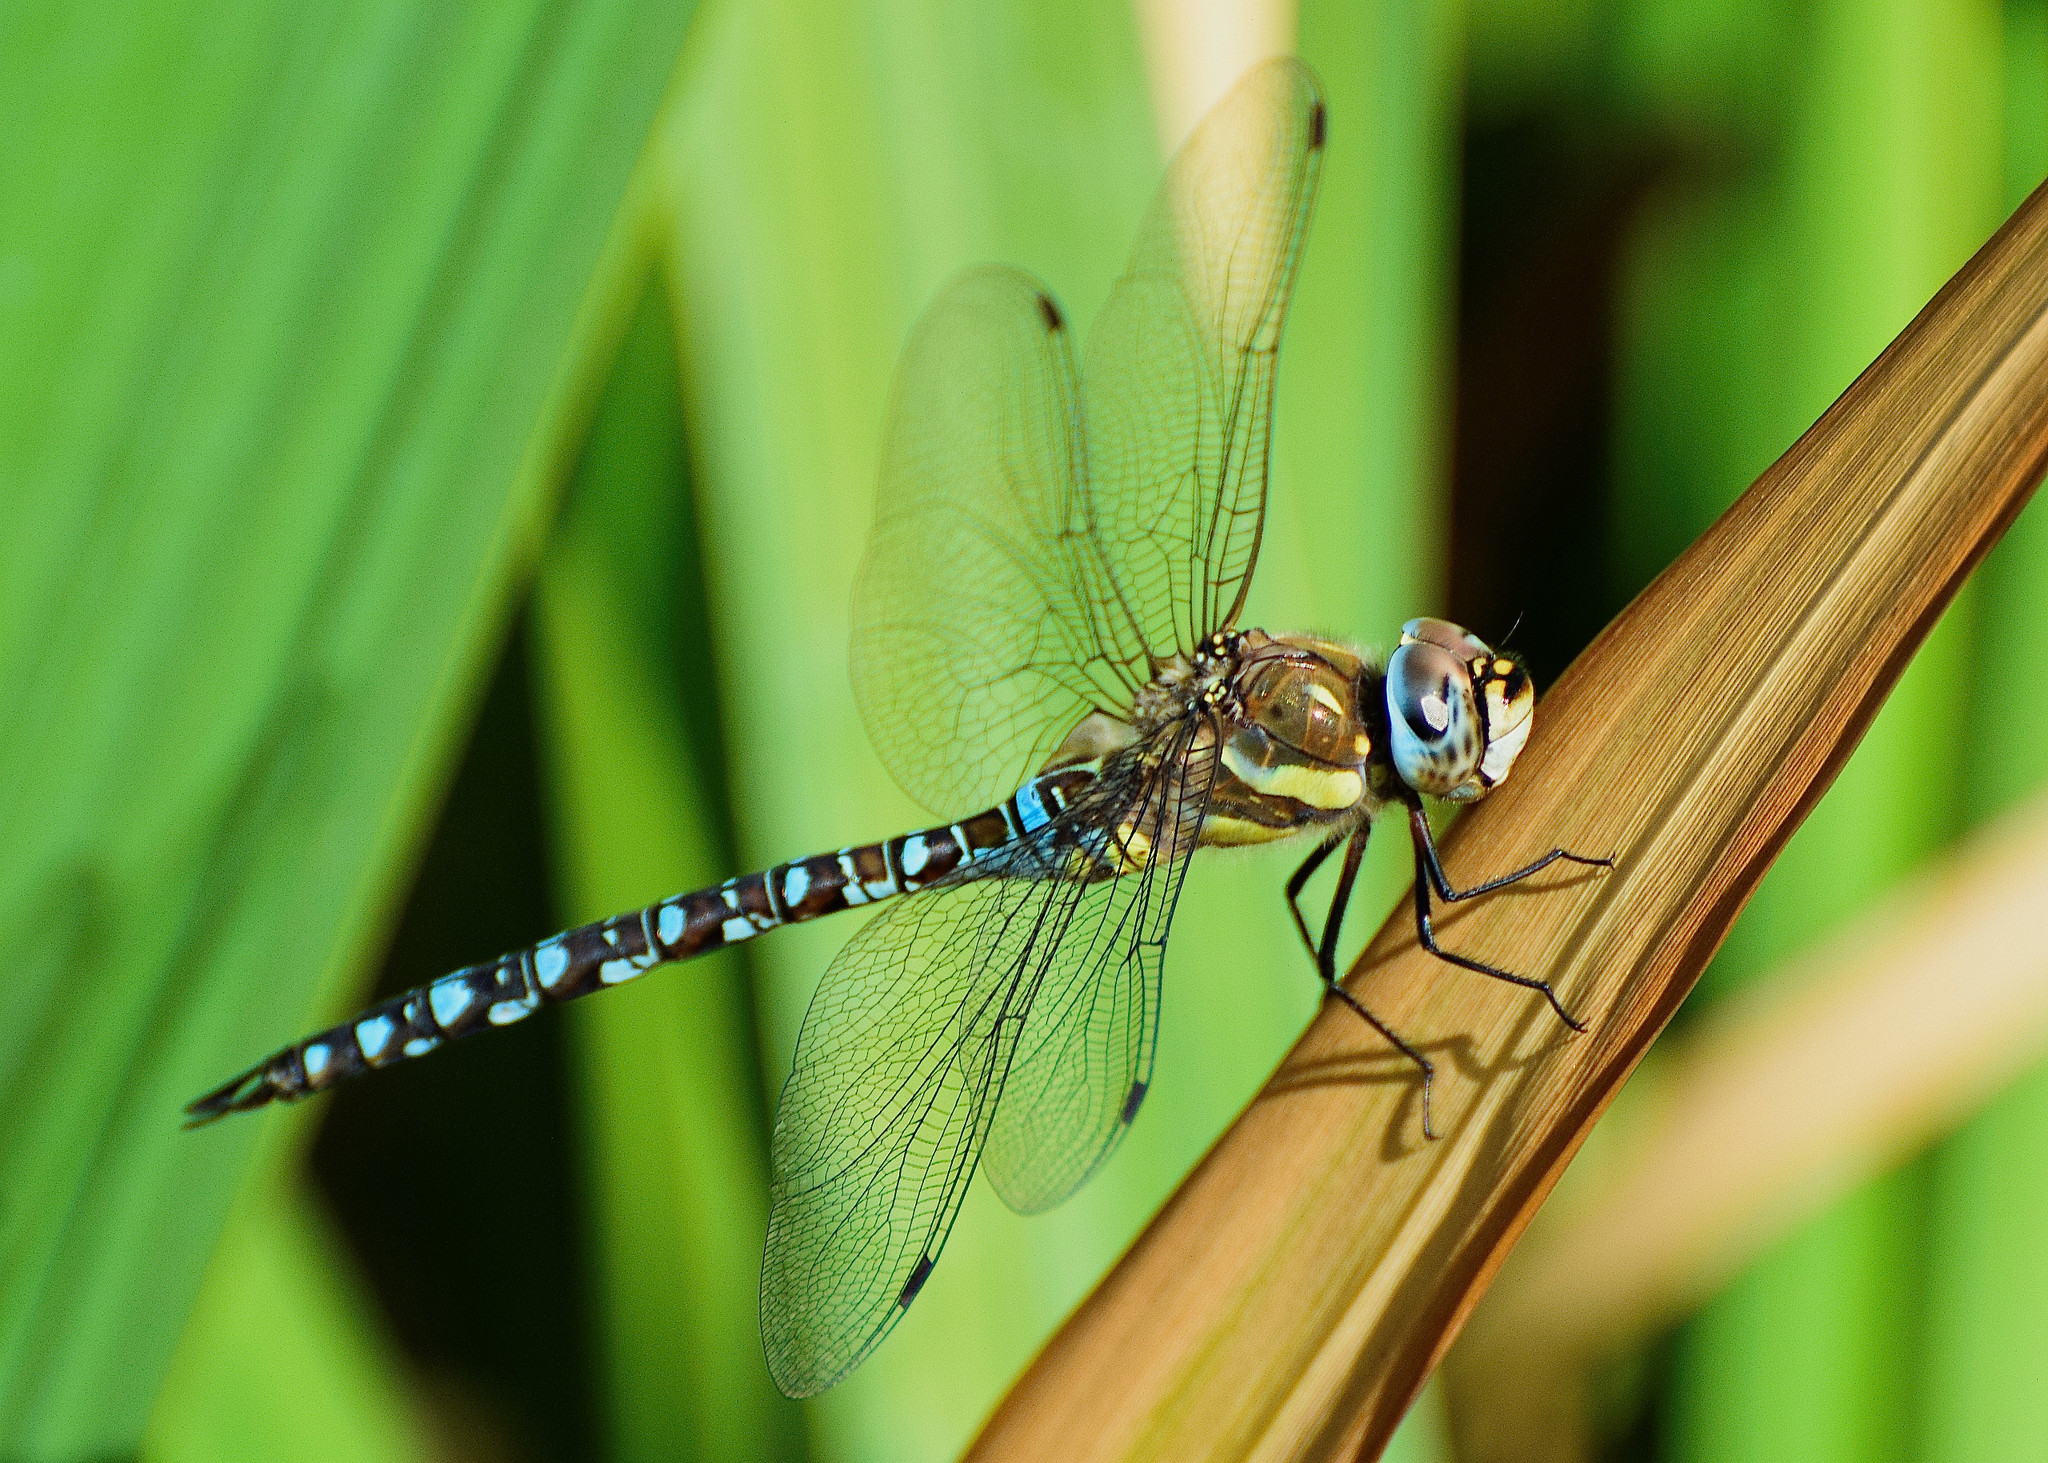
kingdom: Animalia
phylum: Arthropoda
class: Insecta
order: Odonata
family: Aeshnidae
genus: Aeshna
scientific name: Aeshna mixta
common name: Migrant hawker
